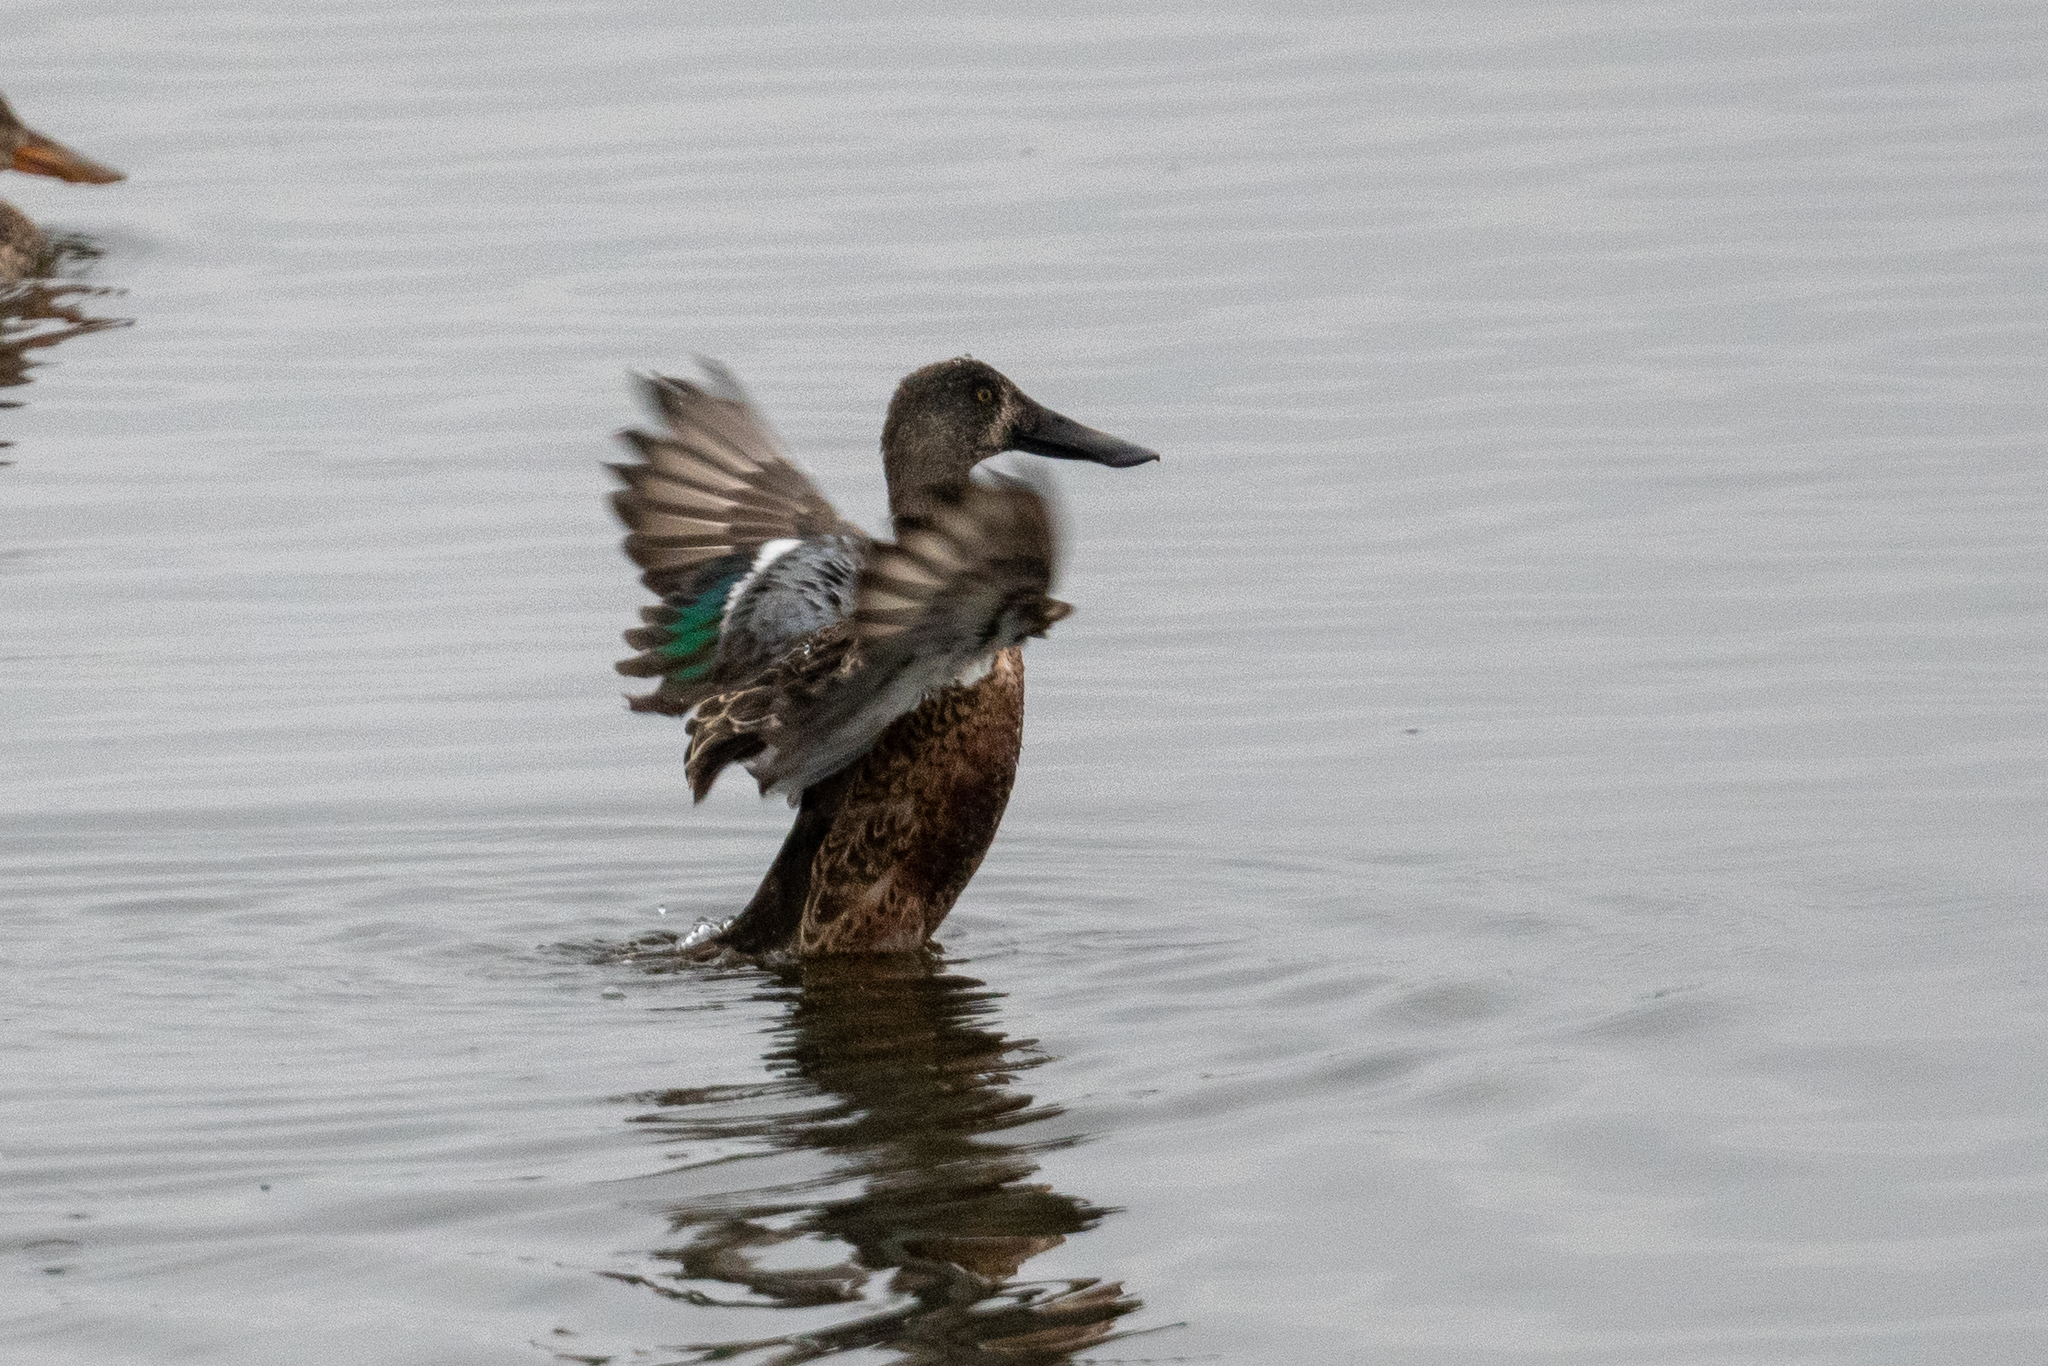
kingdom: Animalia
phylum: Chordata
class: Aves
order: Anseriformes
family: Anatidae
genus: Spatula
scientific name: Spatula clypeata
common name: Northern shoveler
